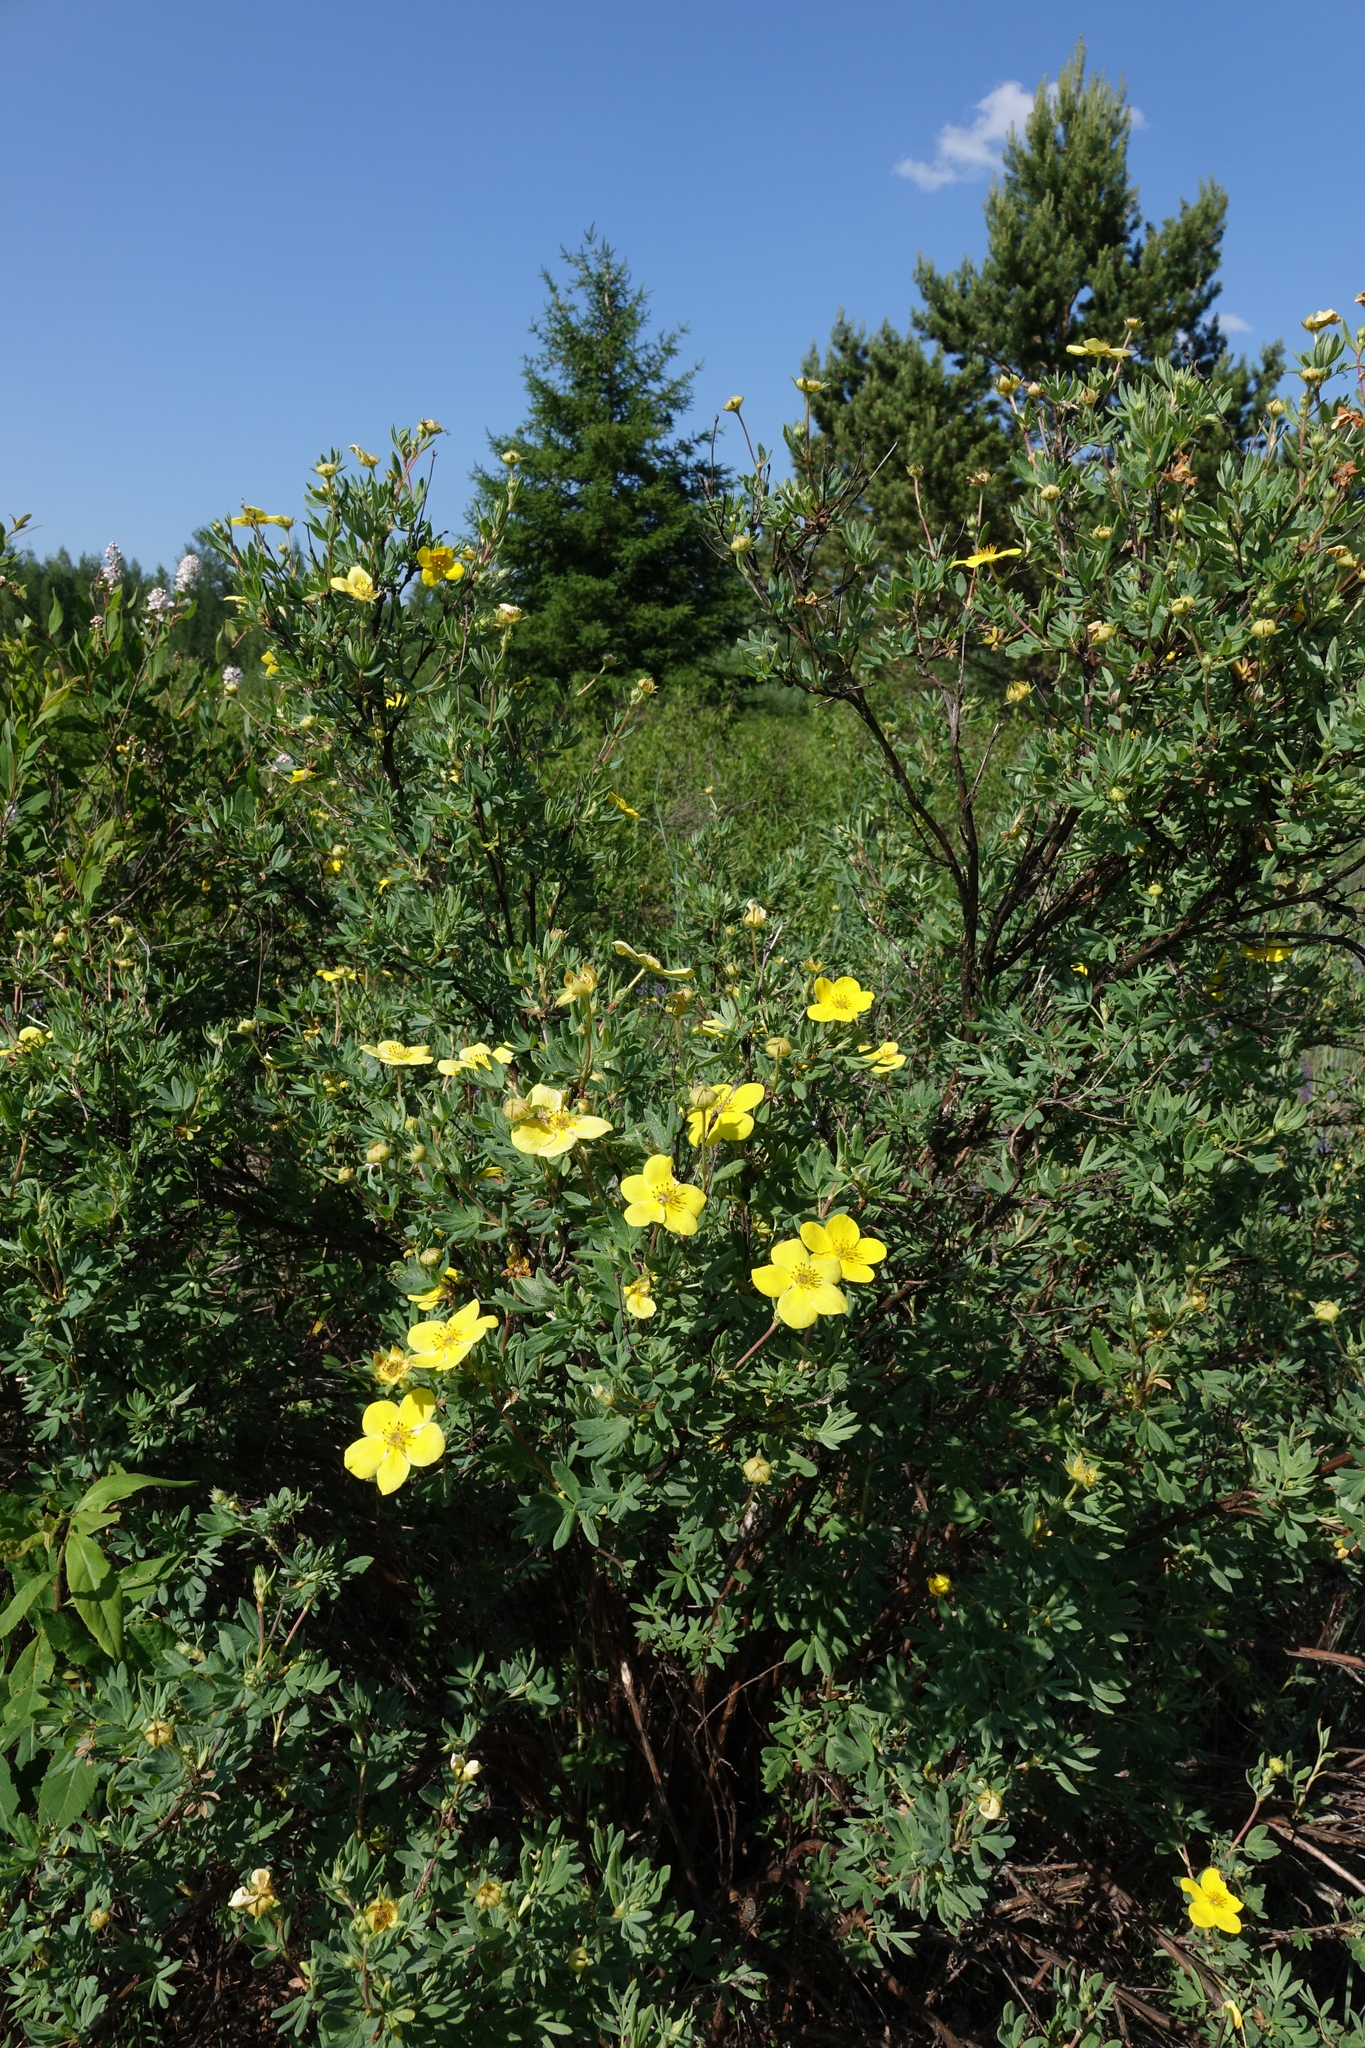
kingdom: Plantae
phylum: Tracheophyta
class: Magnoliopsida
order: Rosales
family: Rosaceae
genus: Dasiphora
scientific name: Dasiphora fruticosa
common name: Shrubby cinquefoil
